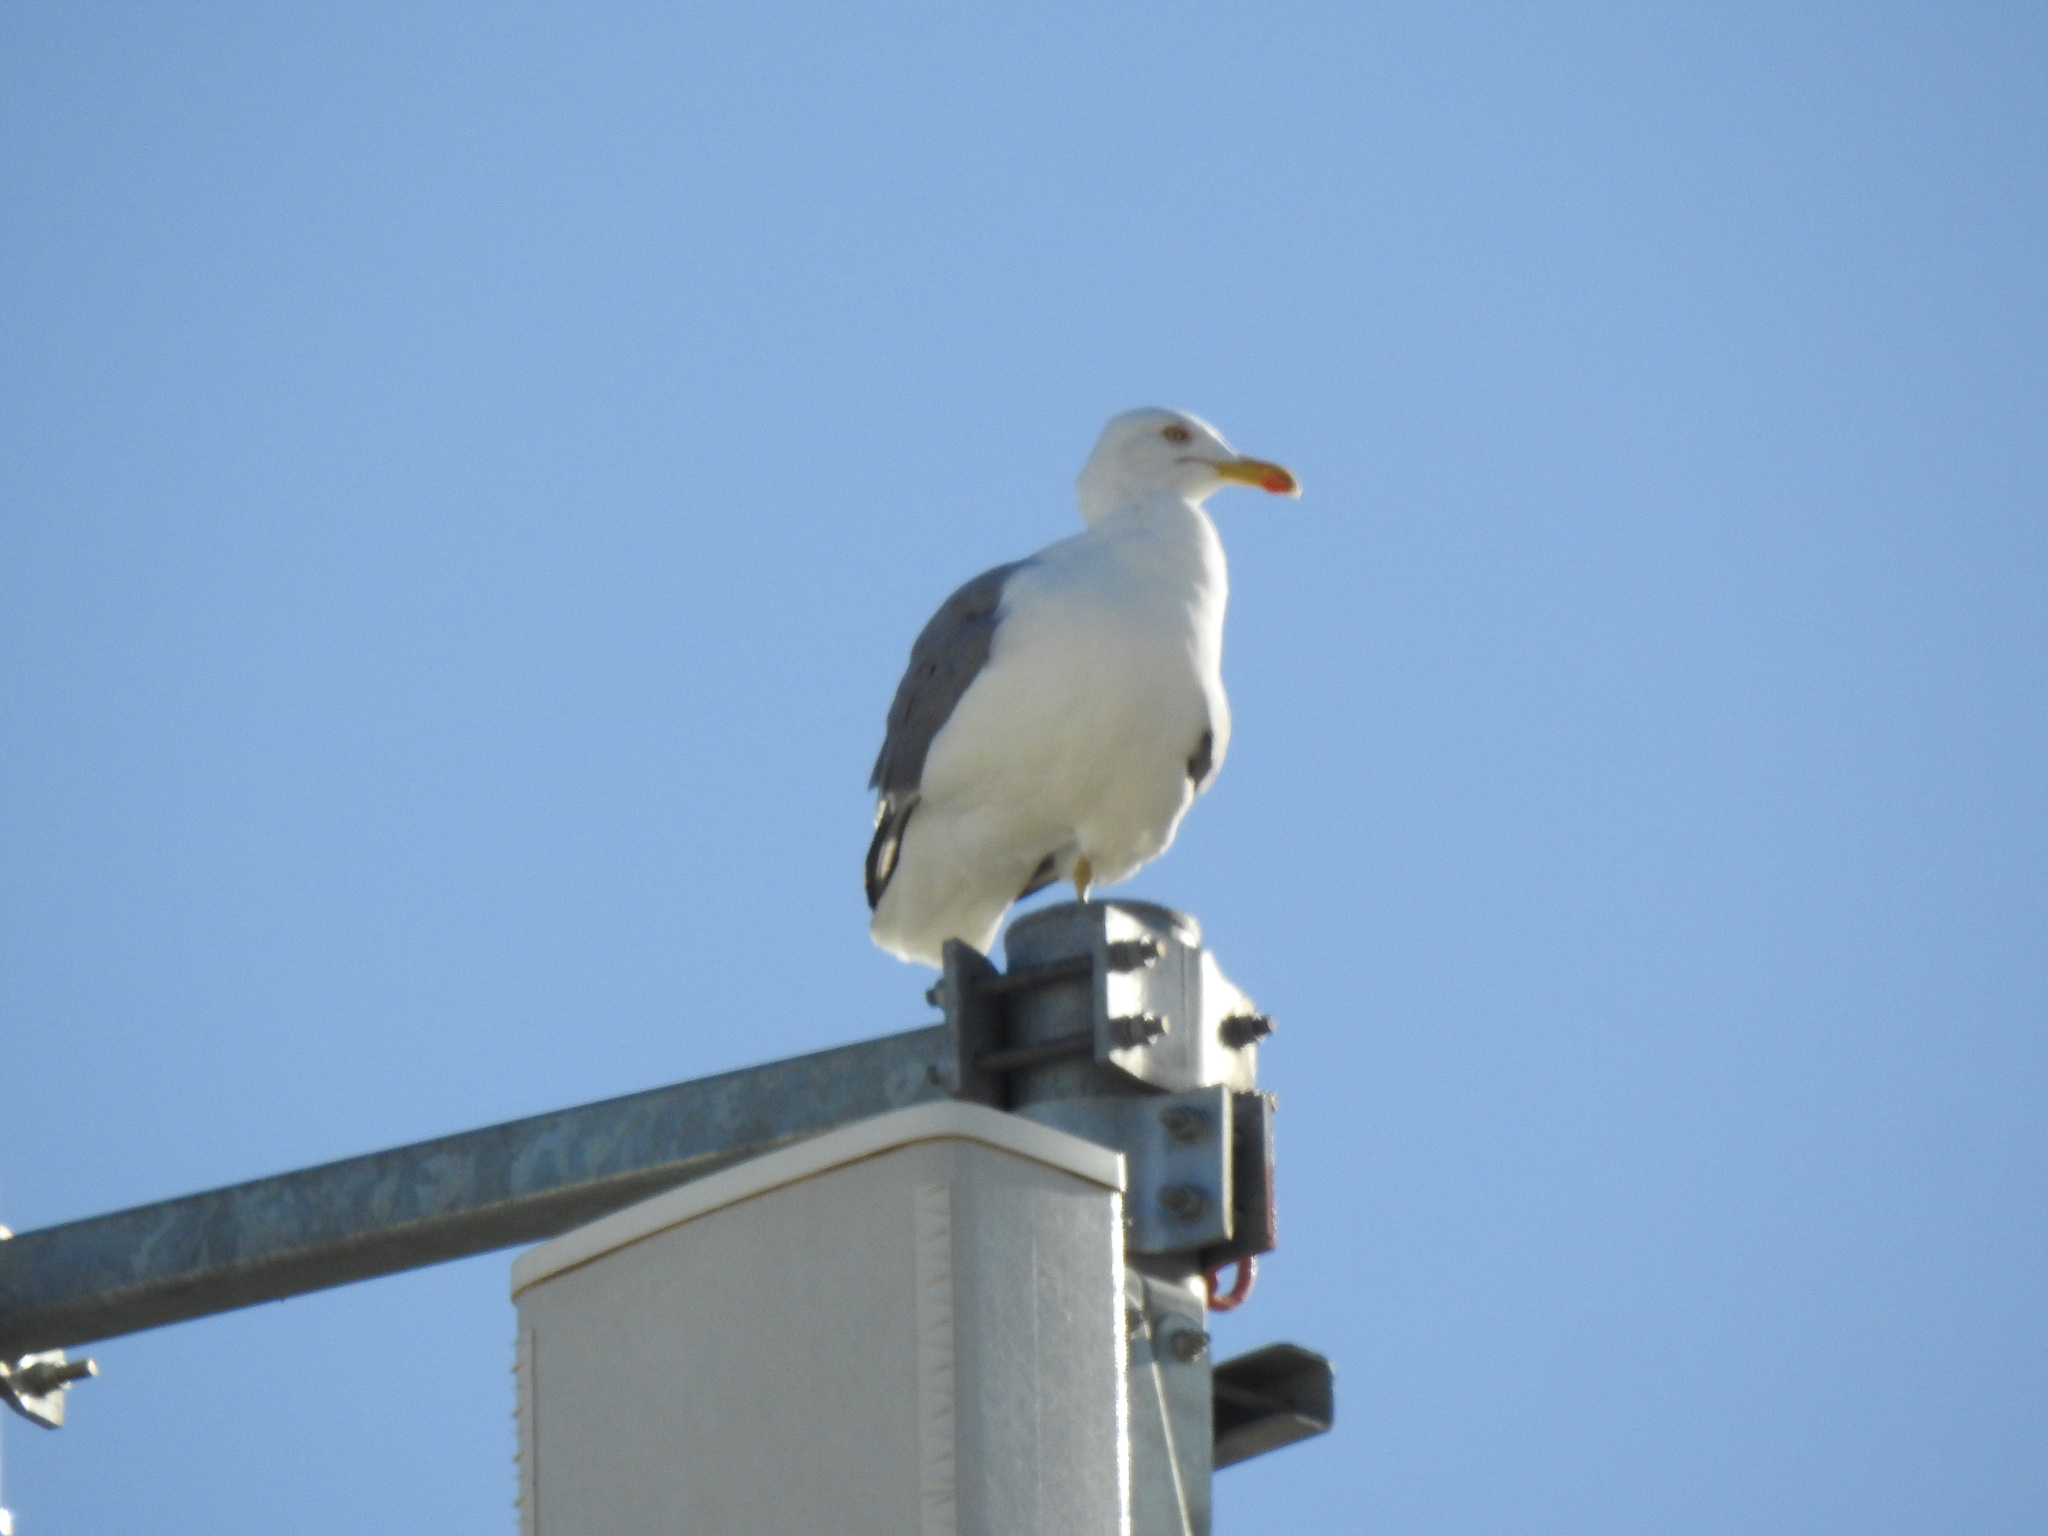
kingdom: Animalia
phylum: Chordata
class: Aves
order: Charadriiformes
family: Laridae
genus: Larus
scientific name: Larus michahellis
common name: Yellow-legged gull
